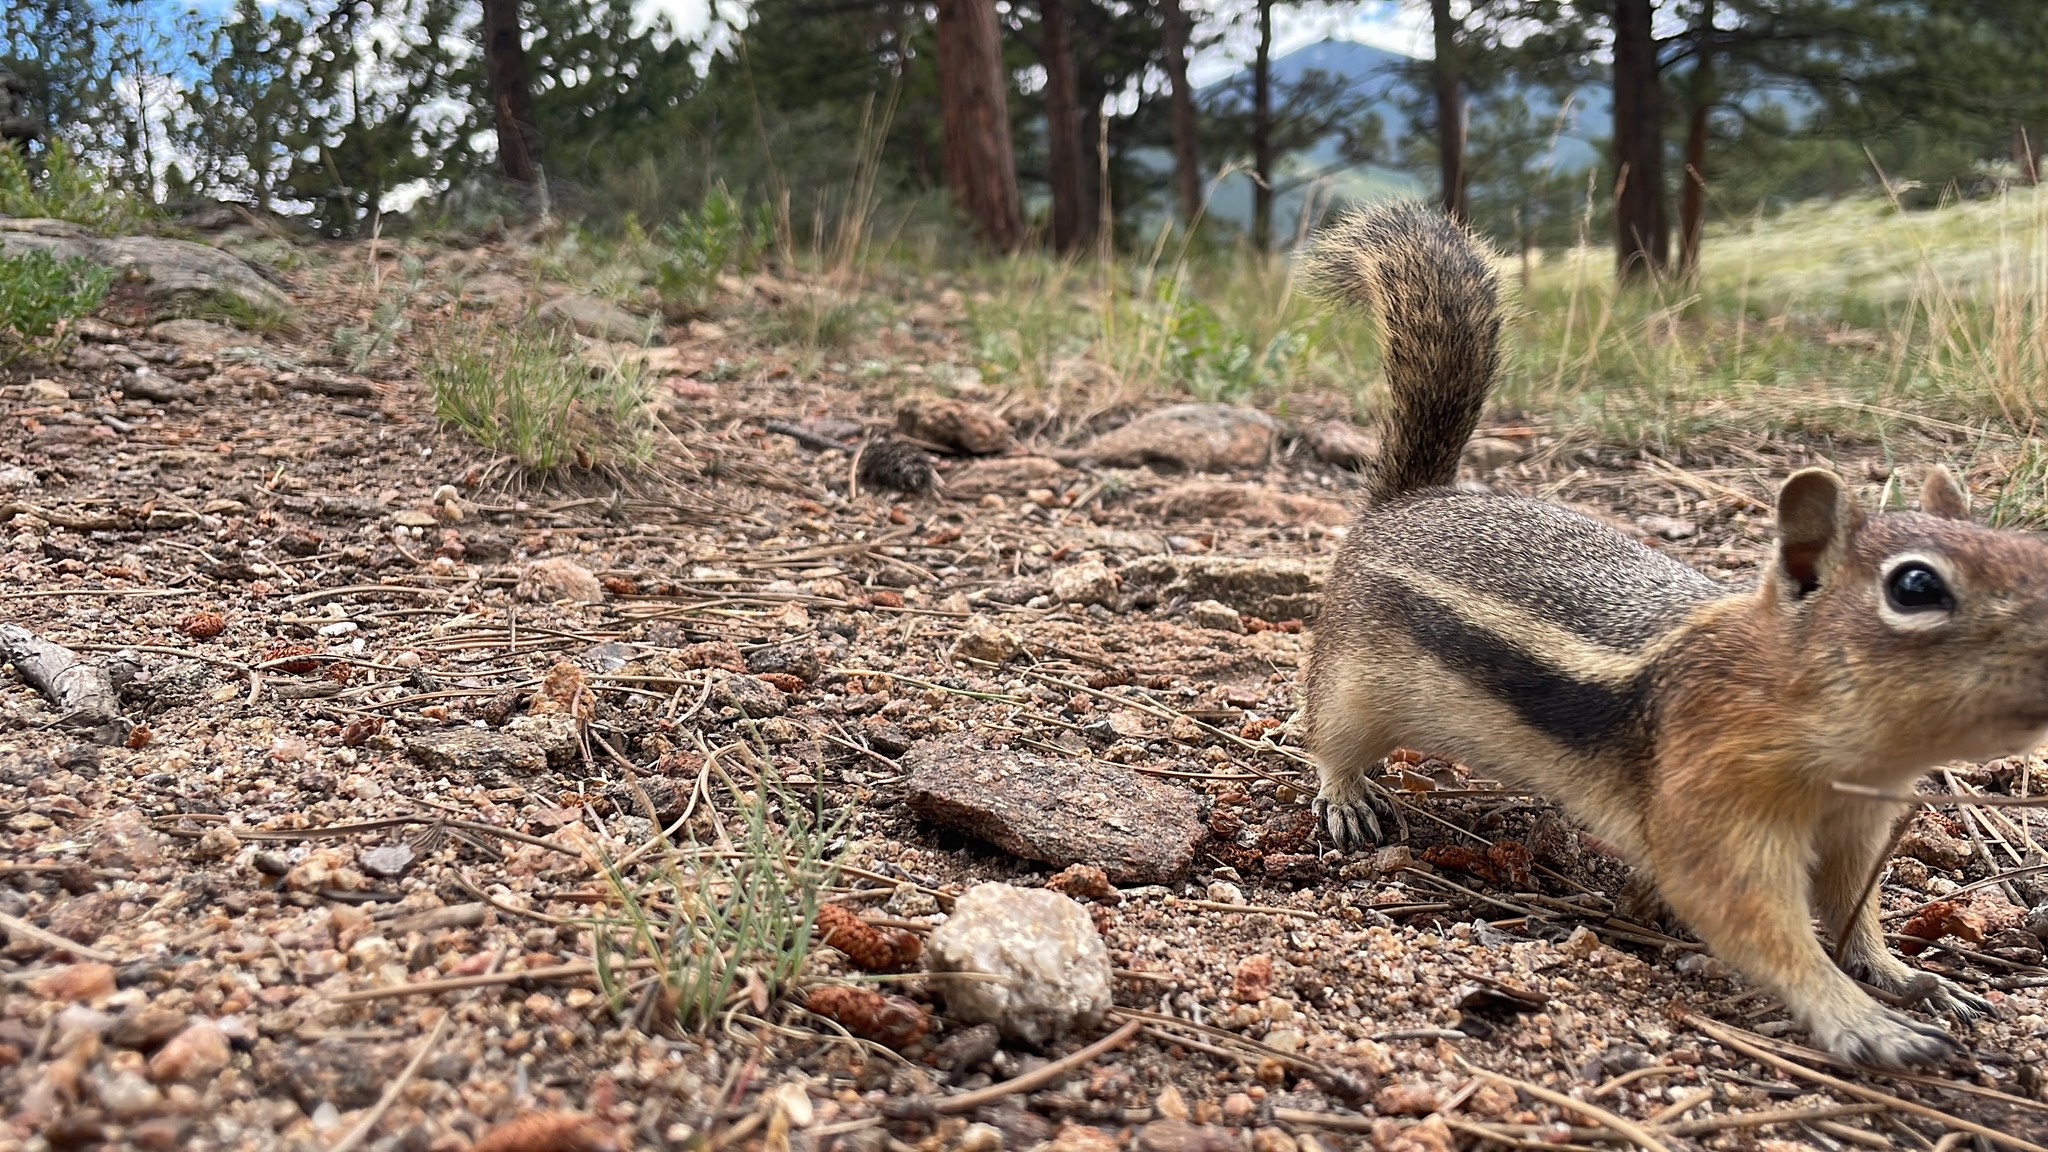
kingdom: Animalia
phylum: Chordata
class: Mammalia
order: Rodentia
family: Sciuridae
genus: Callospermophilus
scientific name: Callospermophilus lateralis
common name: Golden-mantled ground squirrel
